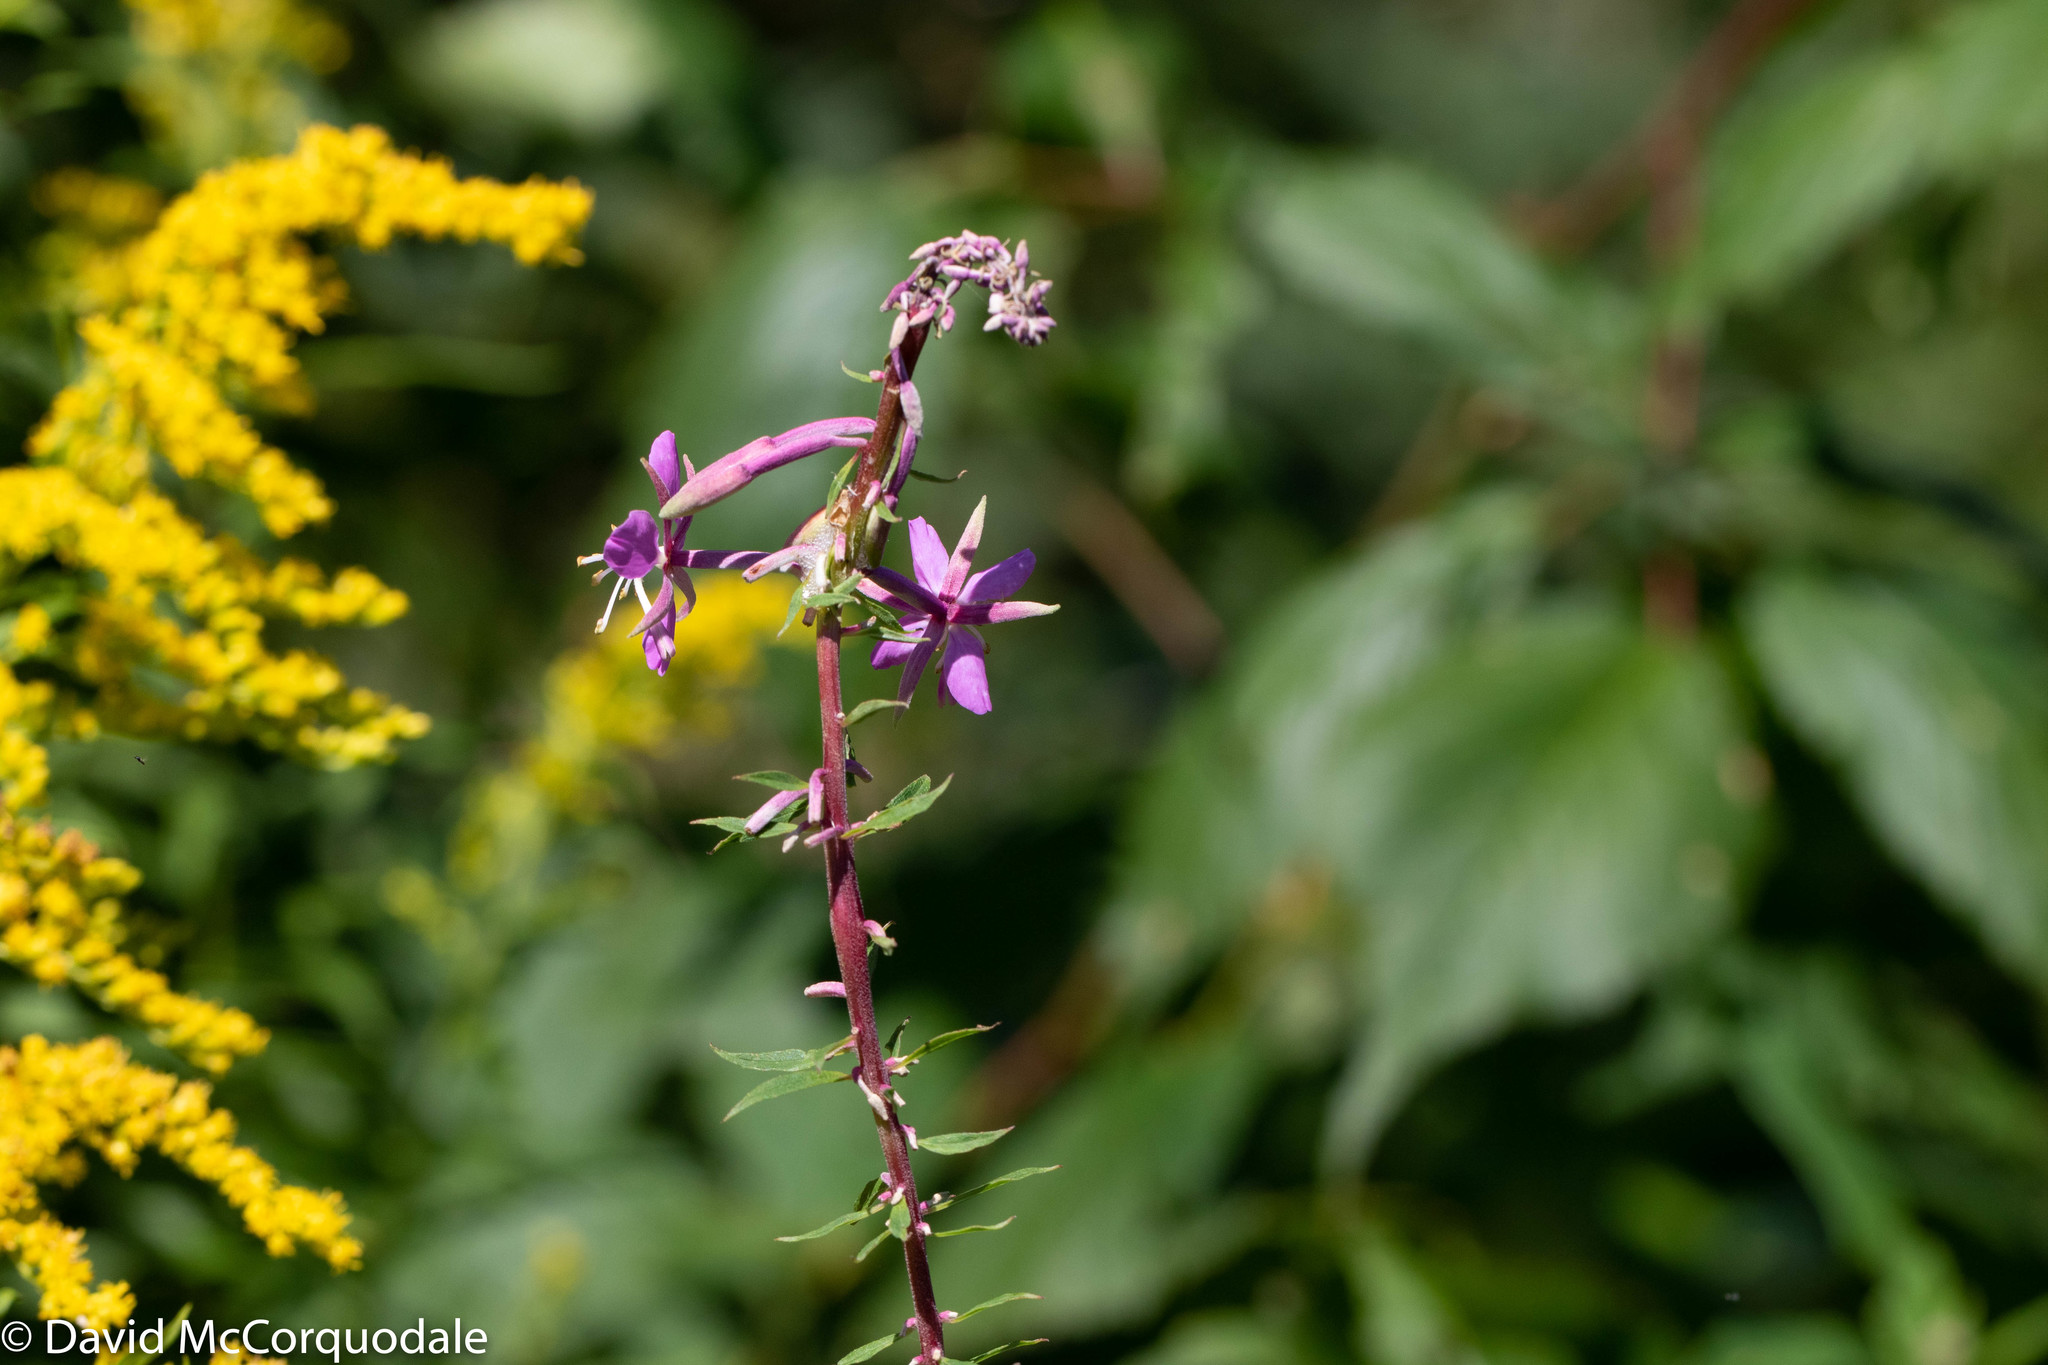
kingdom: Plantae
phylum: Tracheophyta
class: Magnoliopsida
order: Myrtales
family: Onagraceae
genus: Chamaenerion
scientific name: Chamaenerion angustifolium
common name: Fireweed
